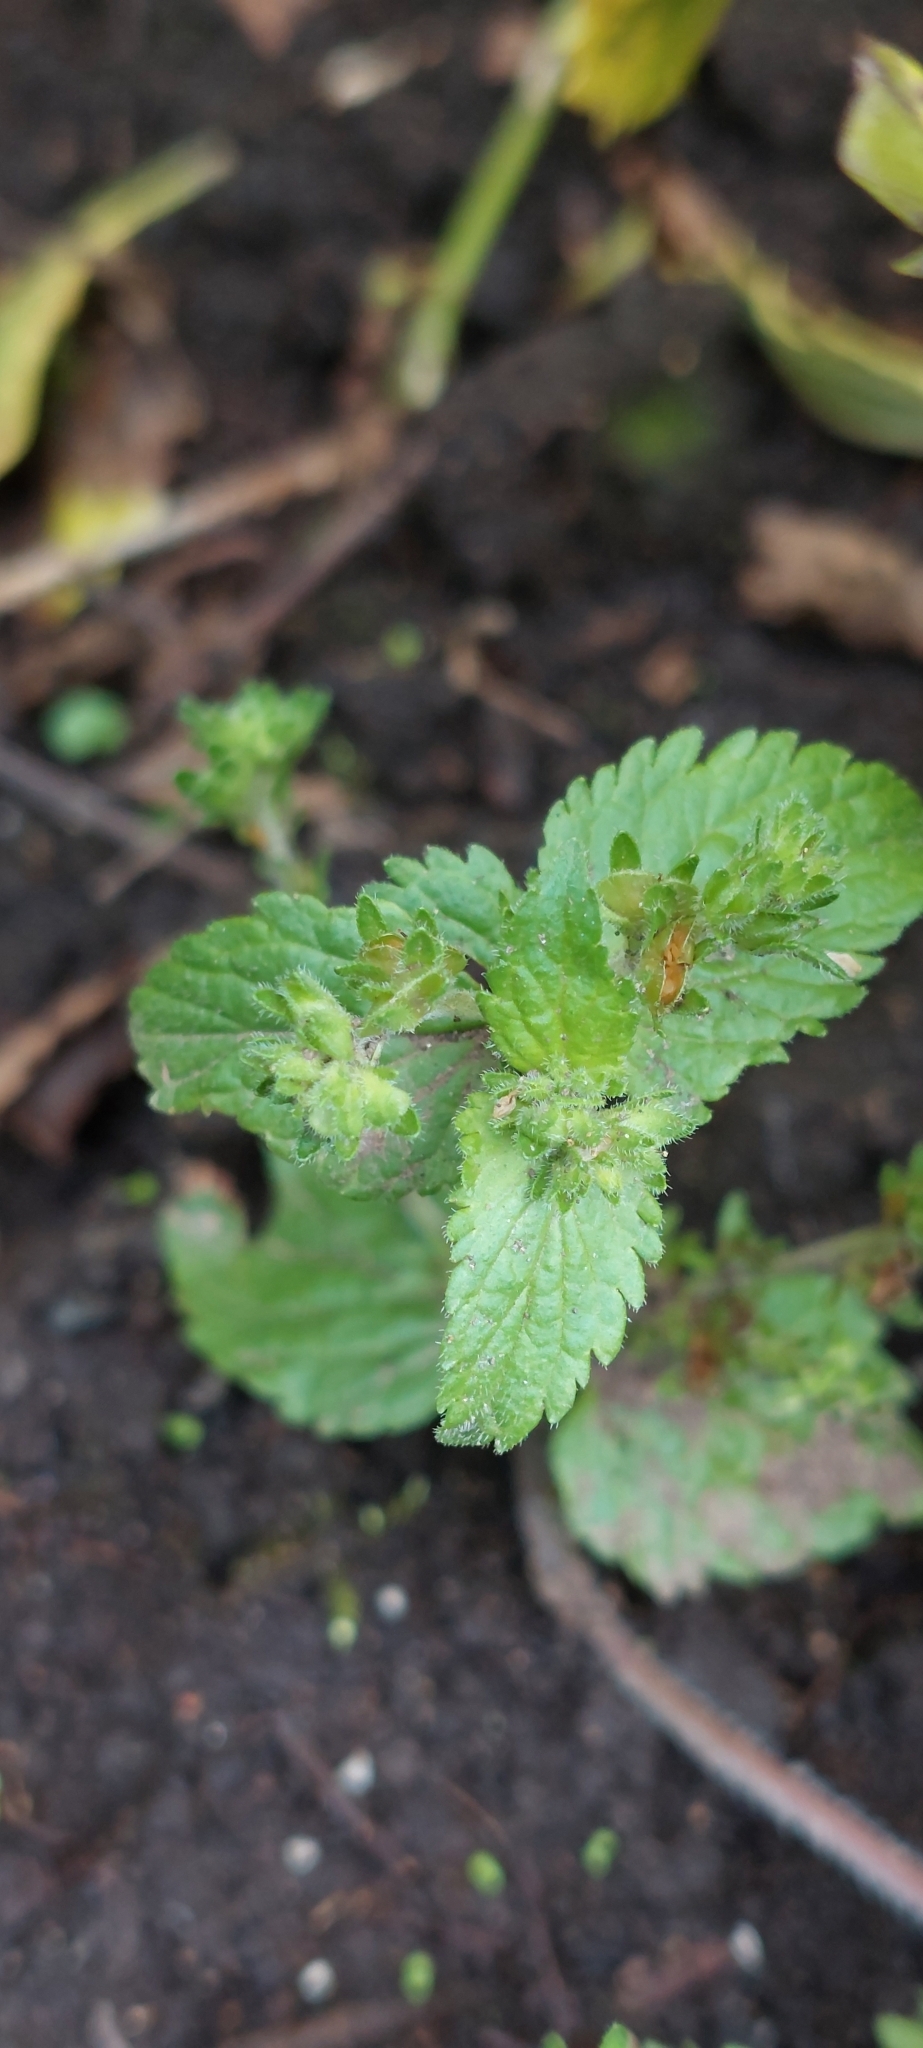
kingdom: Plantae
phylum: Tracheophyta
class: Magnoliopsida
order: Lamiales
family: Plantaginaceae
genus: Veronica
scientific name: Veronica javanica
